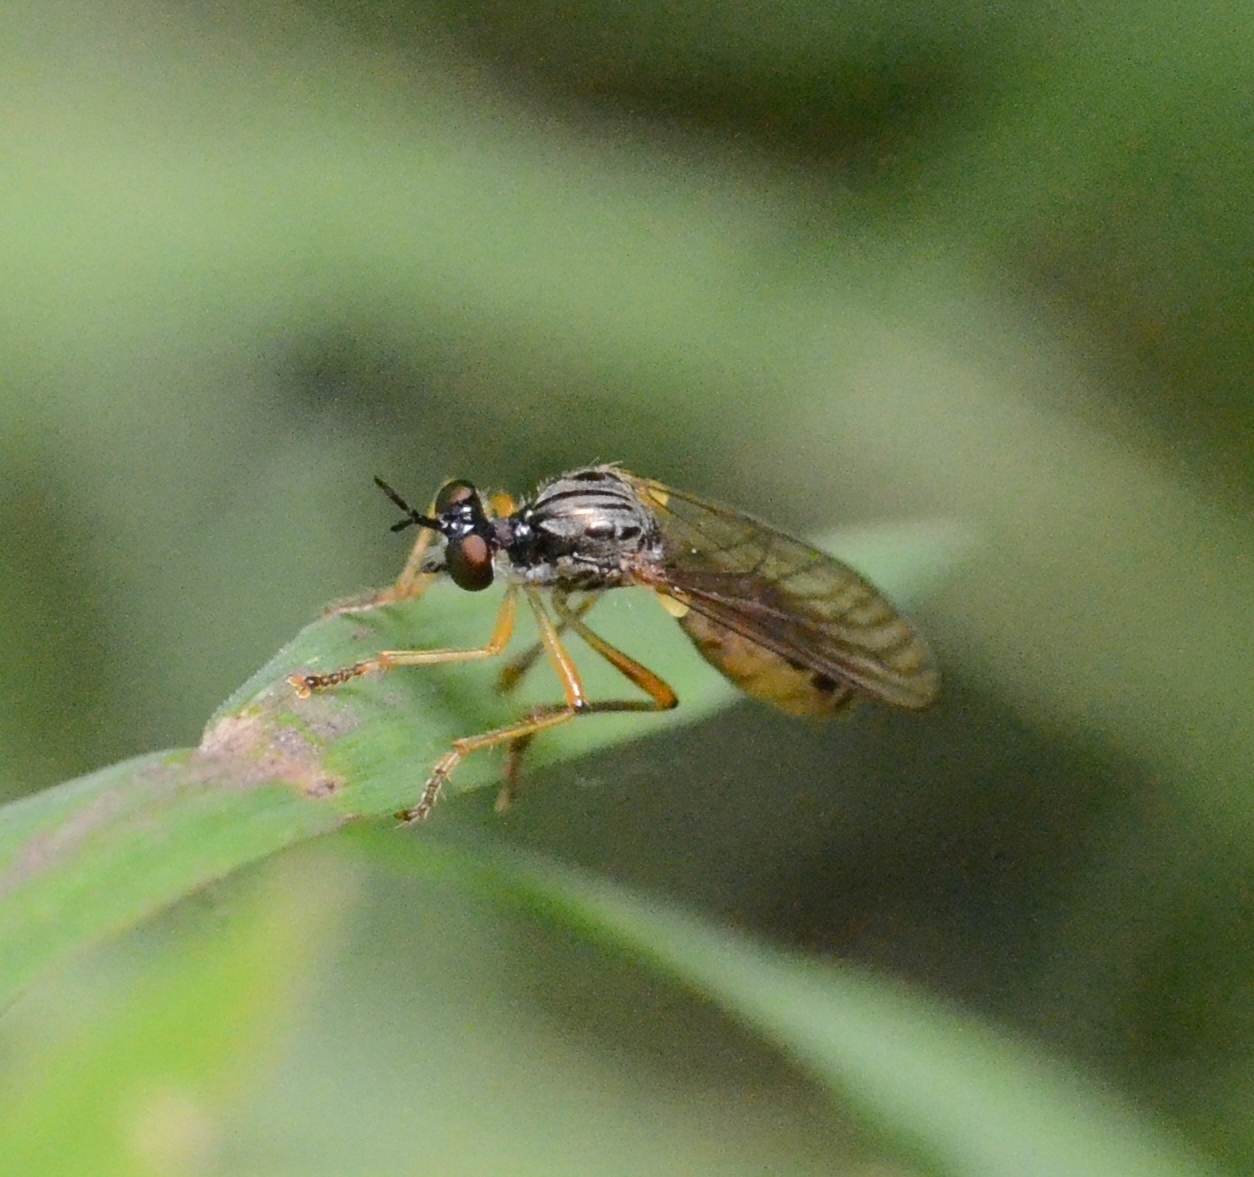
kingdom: Animalia
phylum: Arthropoda
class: Insecta
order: Diptera
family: Asilidae
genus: Dioctria
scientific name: Dioctria linearis
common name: Small yellow-legged robberfly
